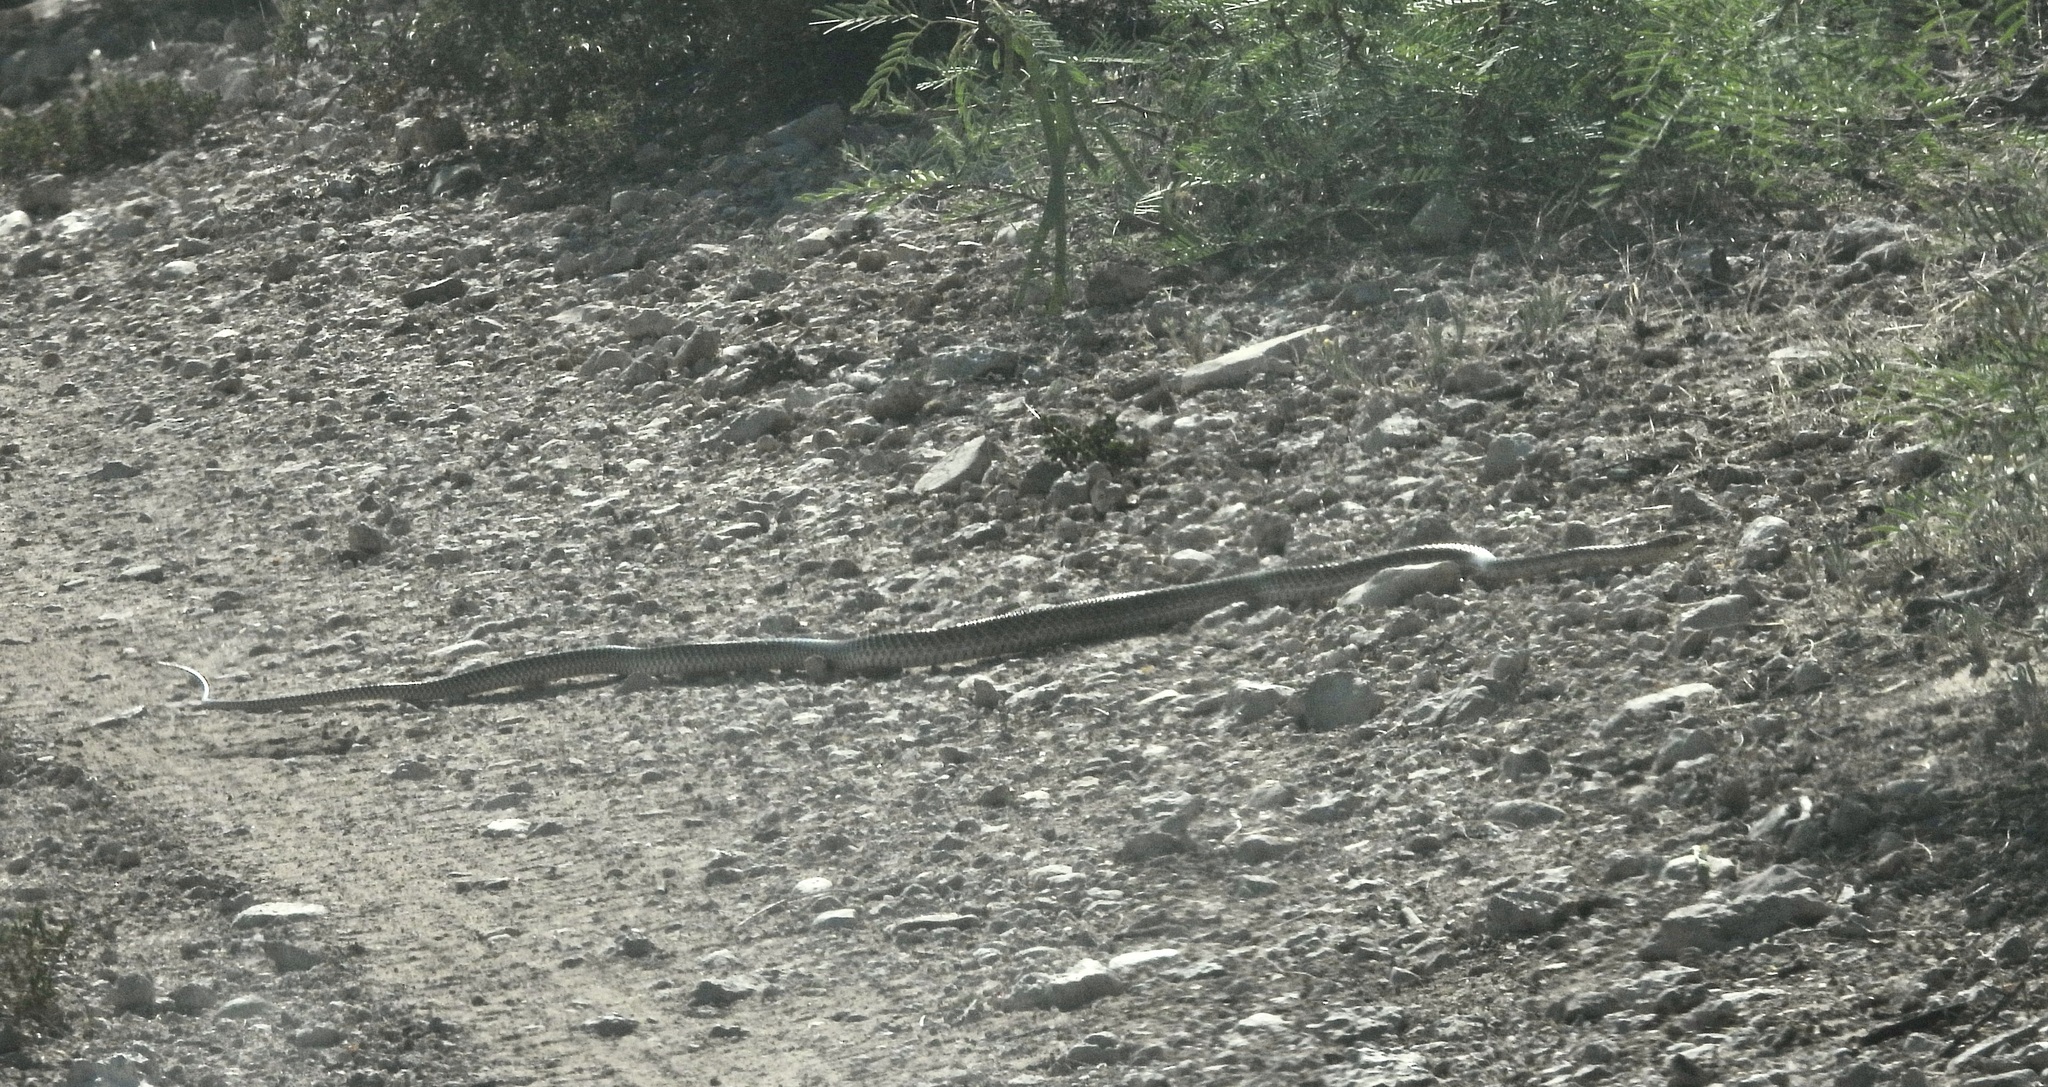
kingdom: Animalia
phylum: Chordata
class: Squamata
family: Colubridae
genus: Masticophis
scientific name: Masticophis flagellum
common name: Coachwhip
